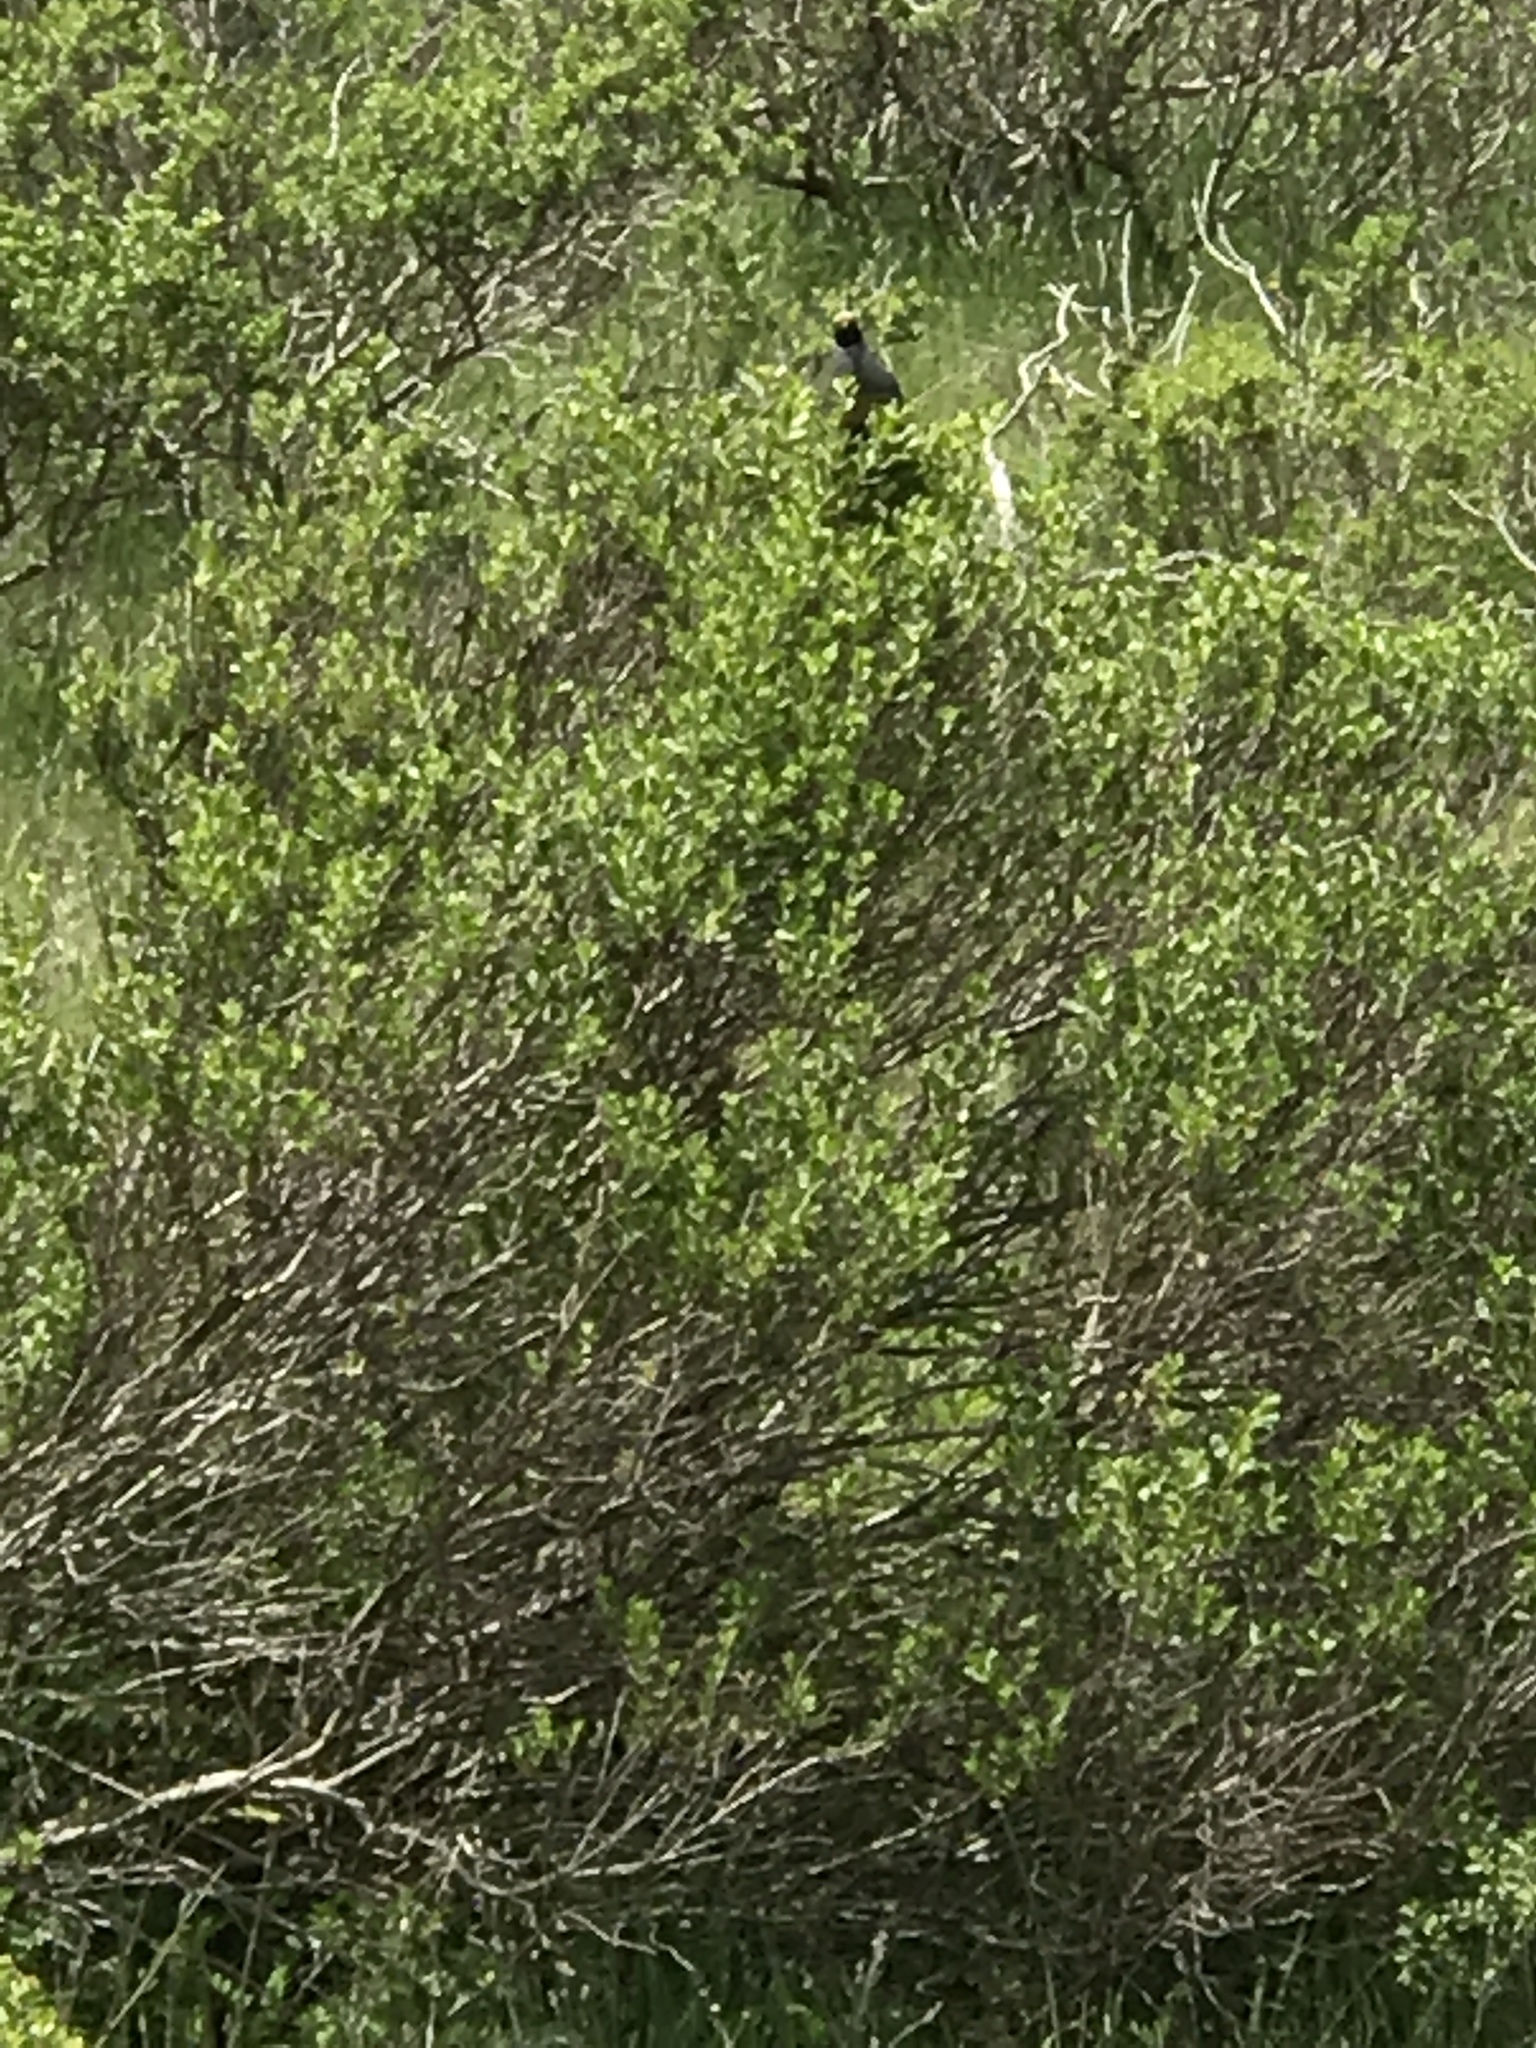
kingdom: Animalia
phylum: Chordata
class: Aves
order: Galliformes
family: Odontophoridae
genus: Callipepla
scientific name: Callipepla californica
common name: California quail
